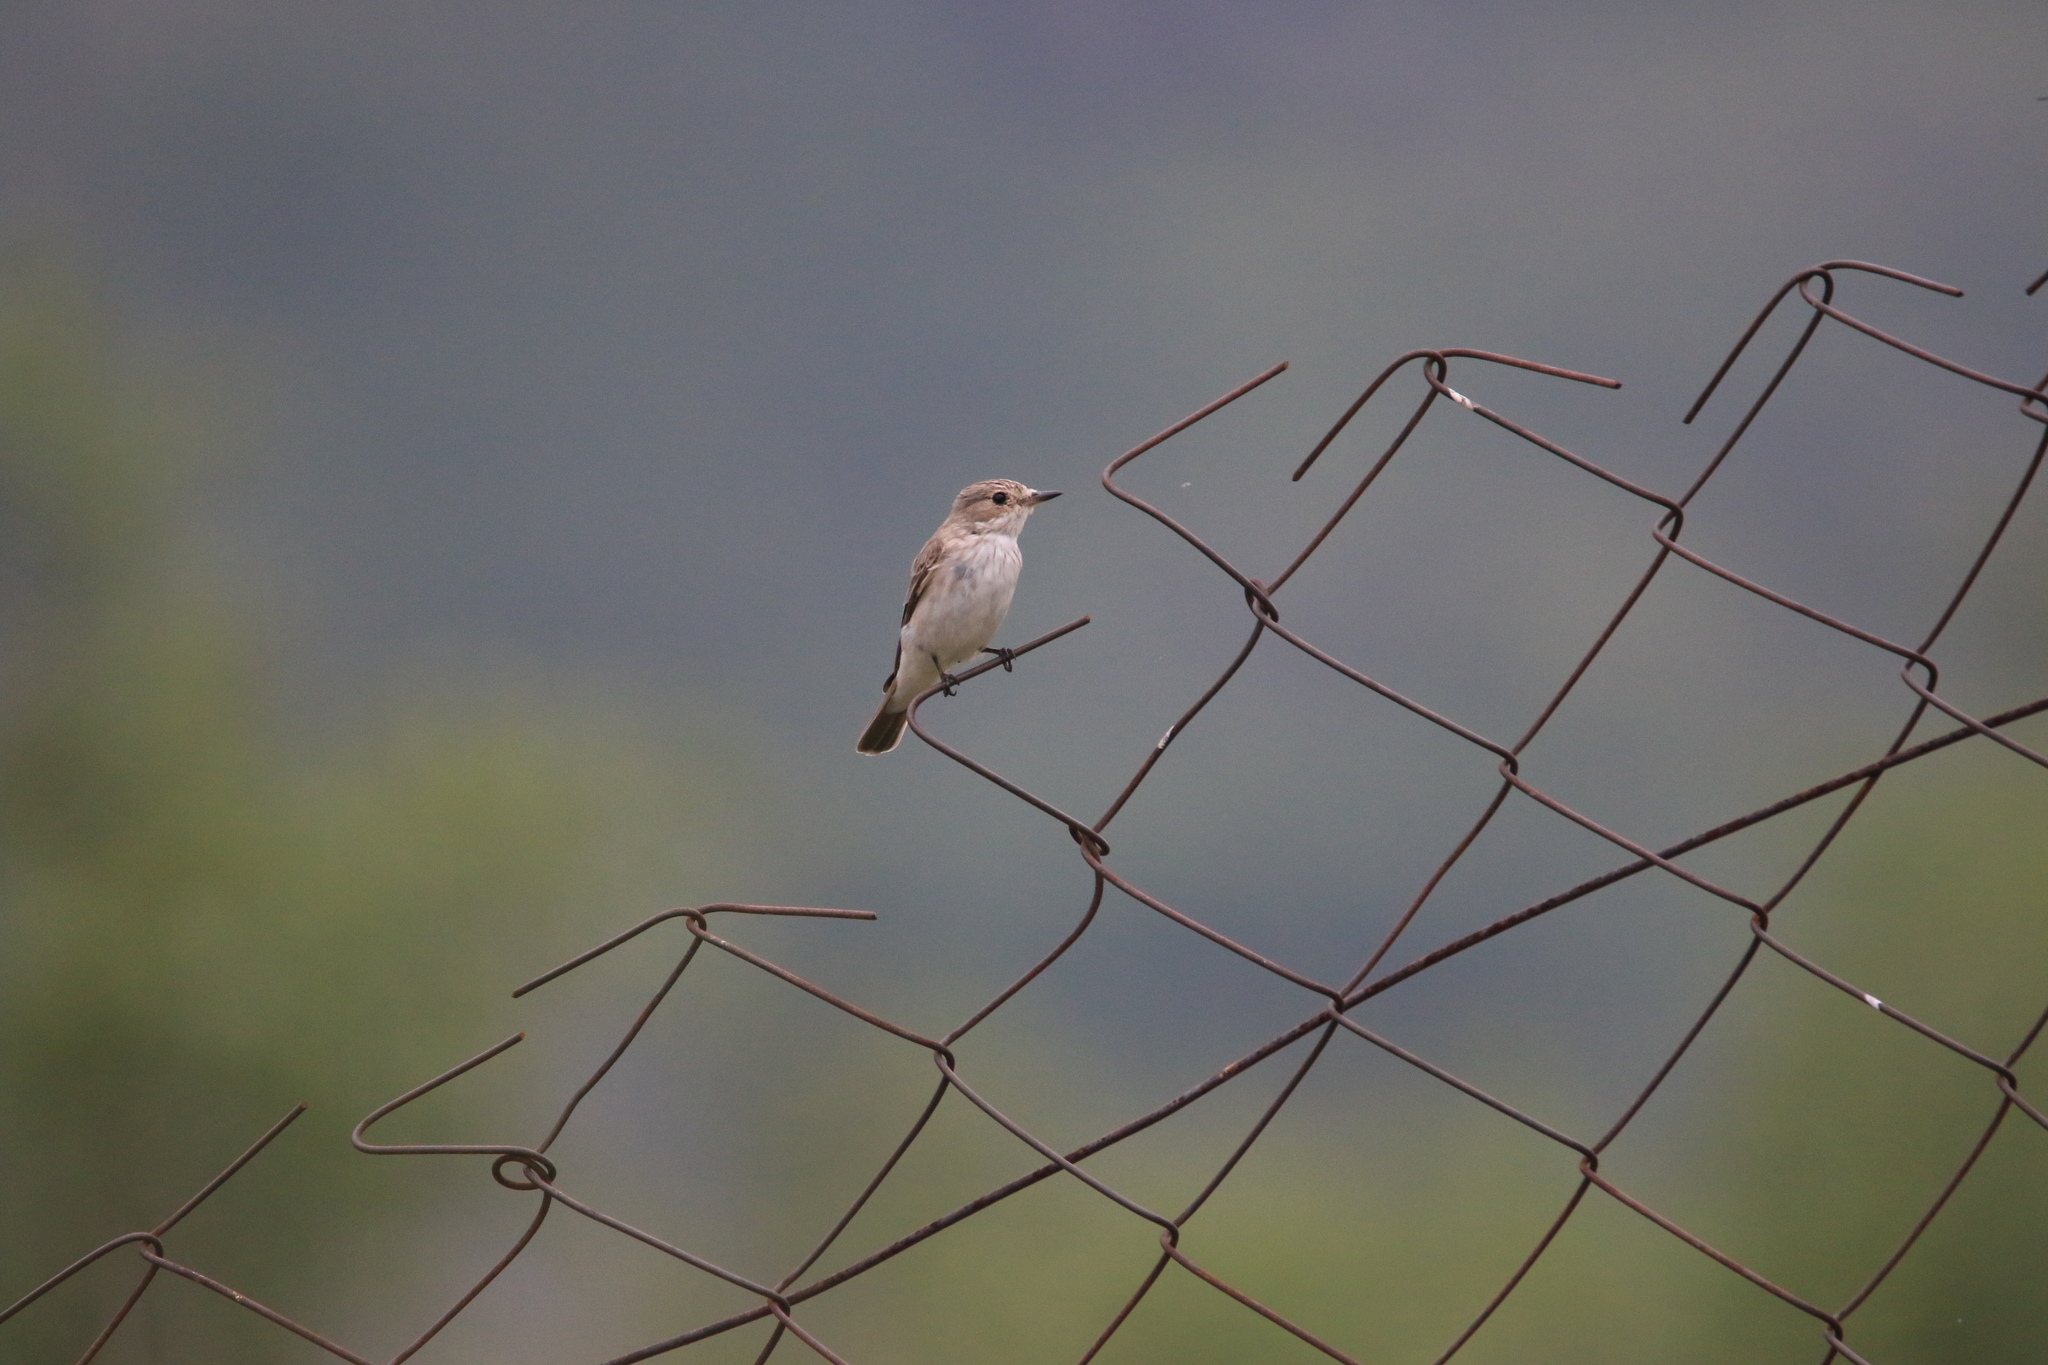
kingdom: Animalia
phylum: Chordata
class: Aves
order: Passeriformes
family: Muscicapidae
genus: Muscicapa
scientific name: Muscicapa striata
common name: Spotted flycatcher
